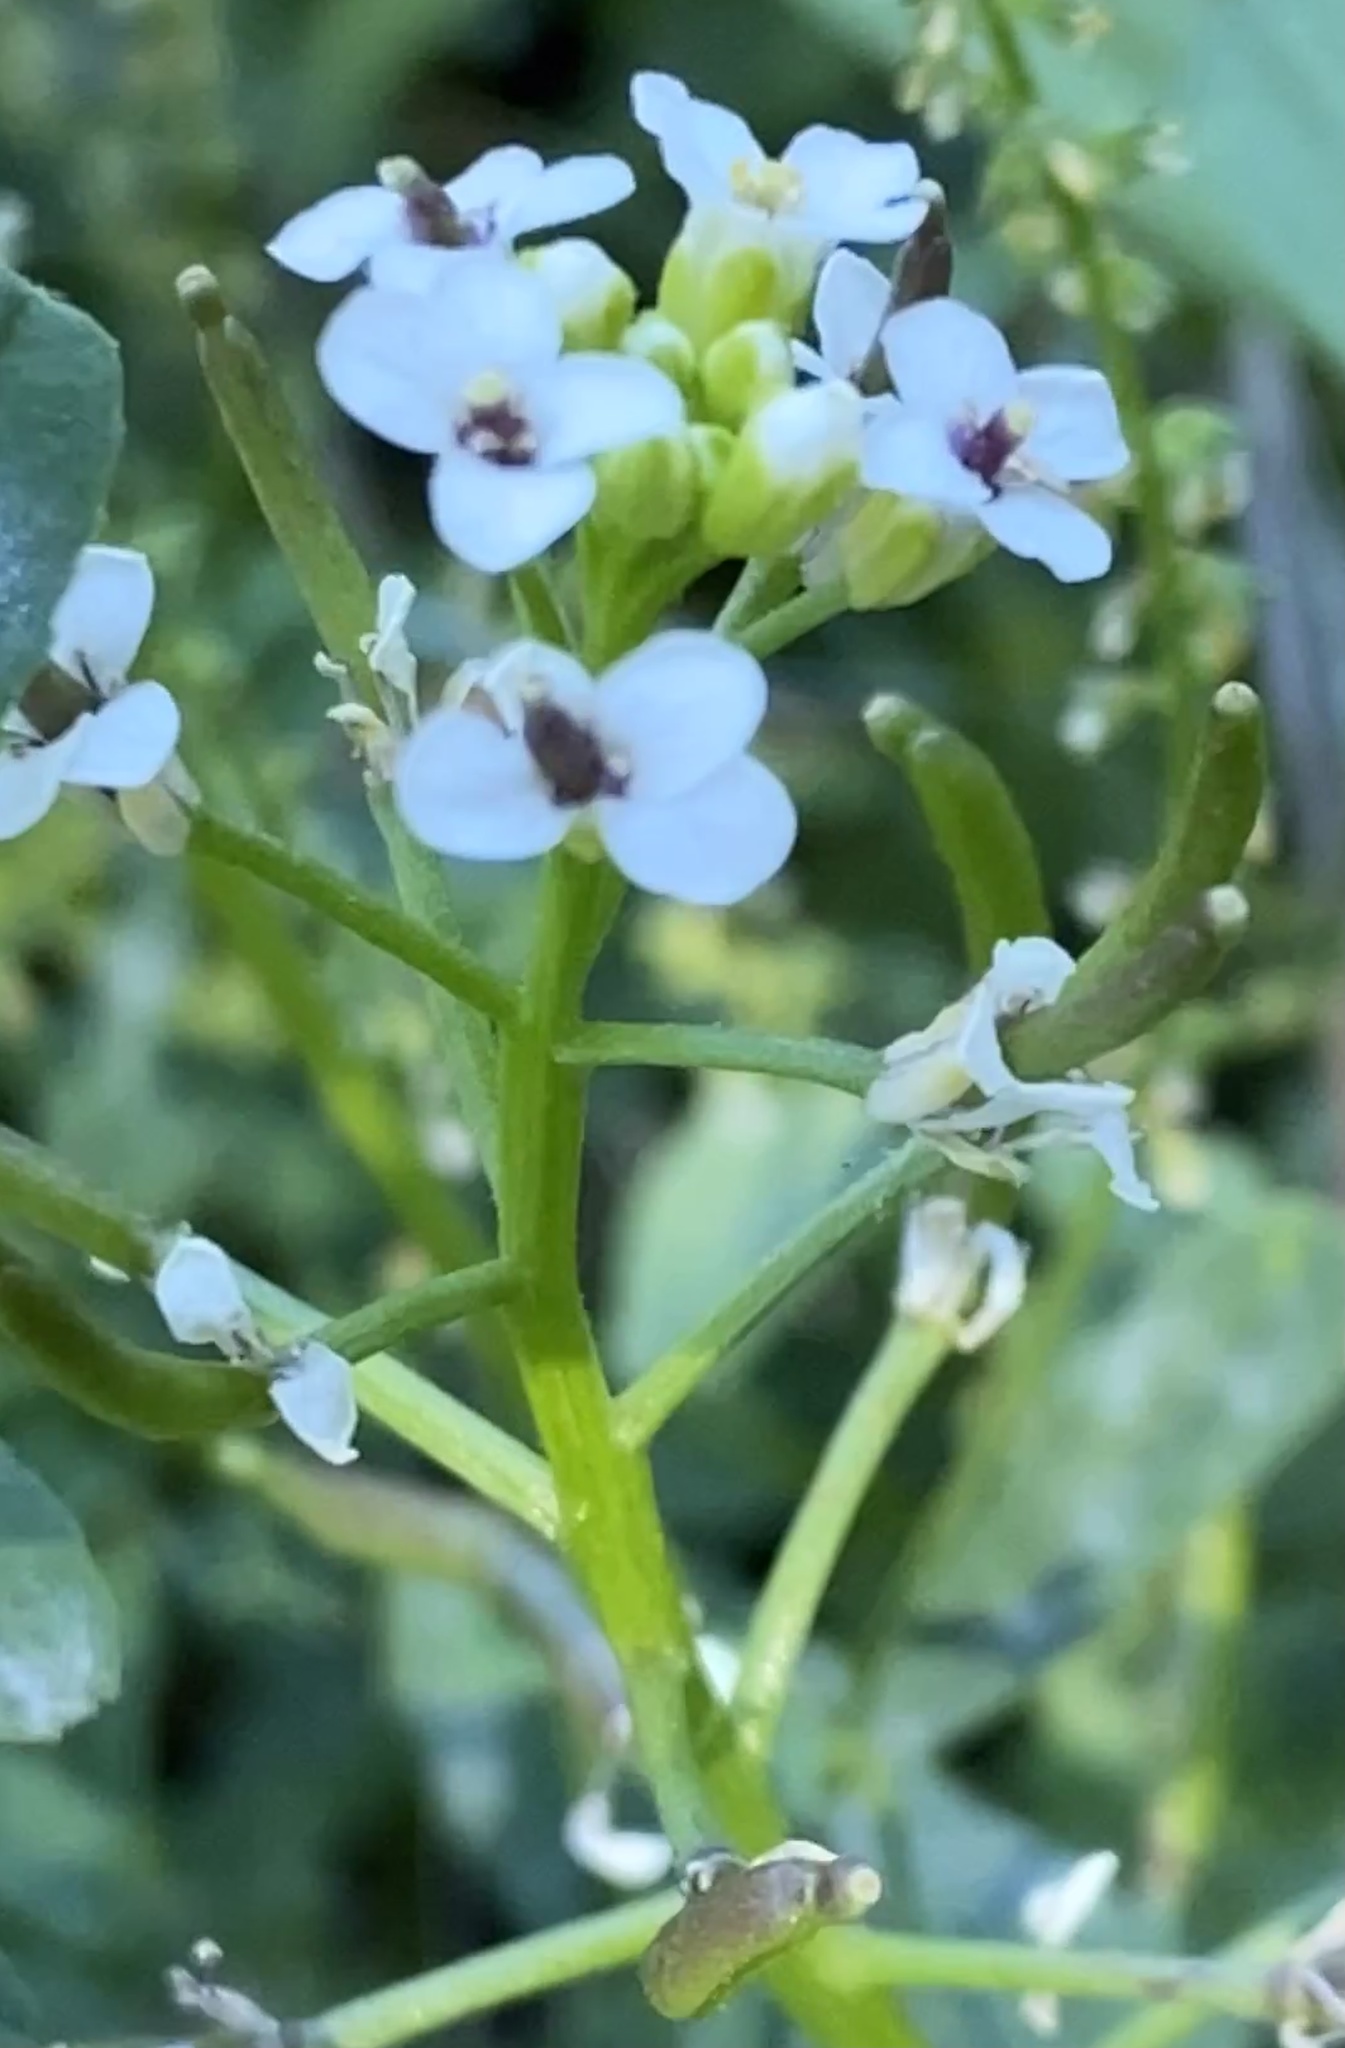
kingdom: Plantae
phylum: Tracheophyta
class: Magnoliopsida
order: Brassicales
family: Brassicaceae
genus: Nasturtium
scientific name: Nasturtium officinale
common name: Watercress
